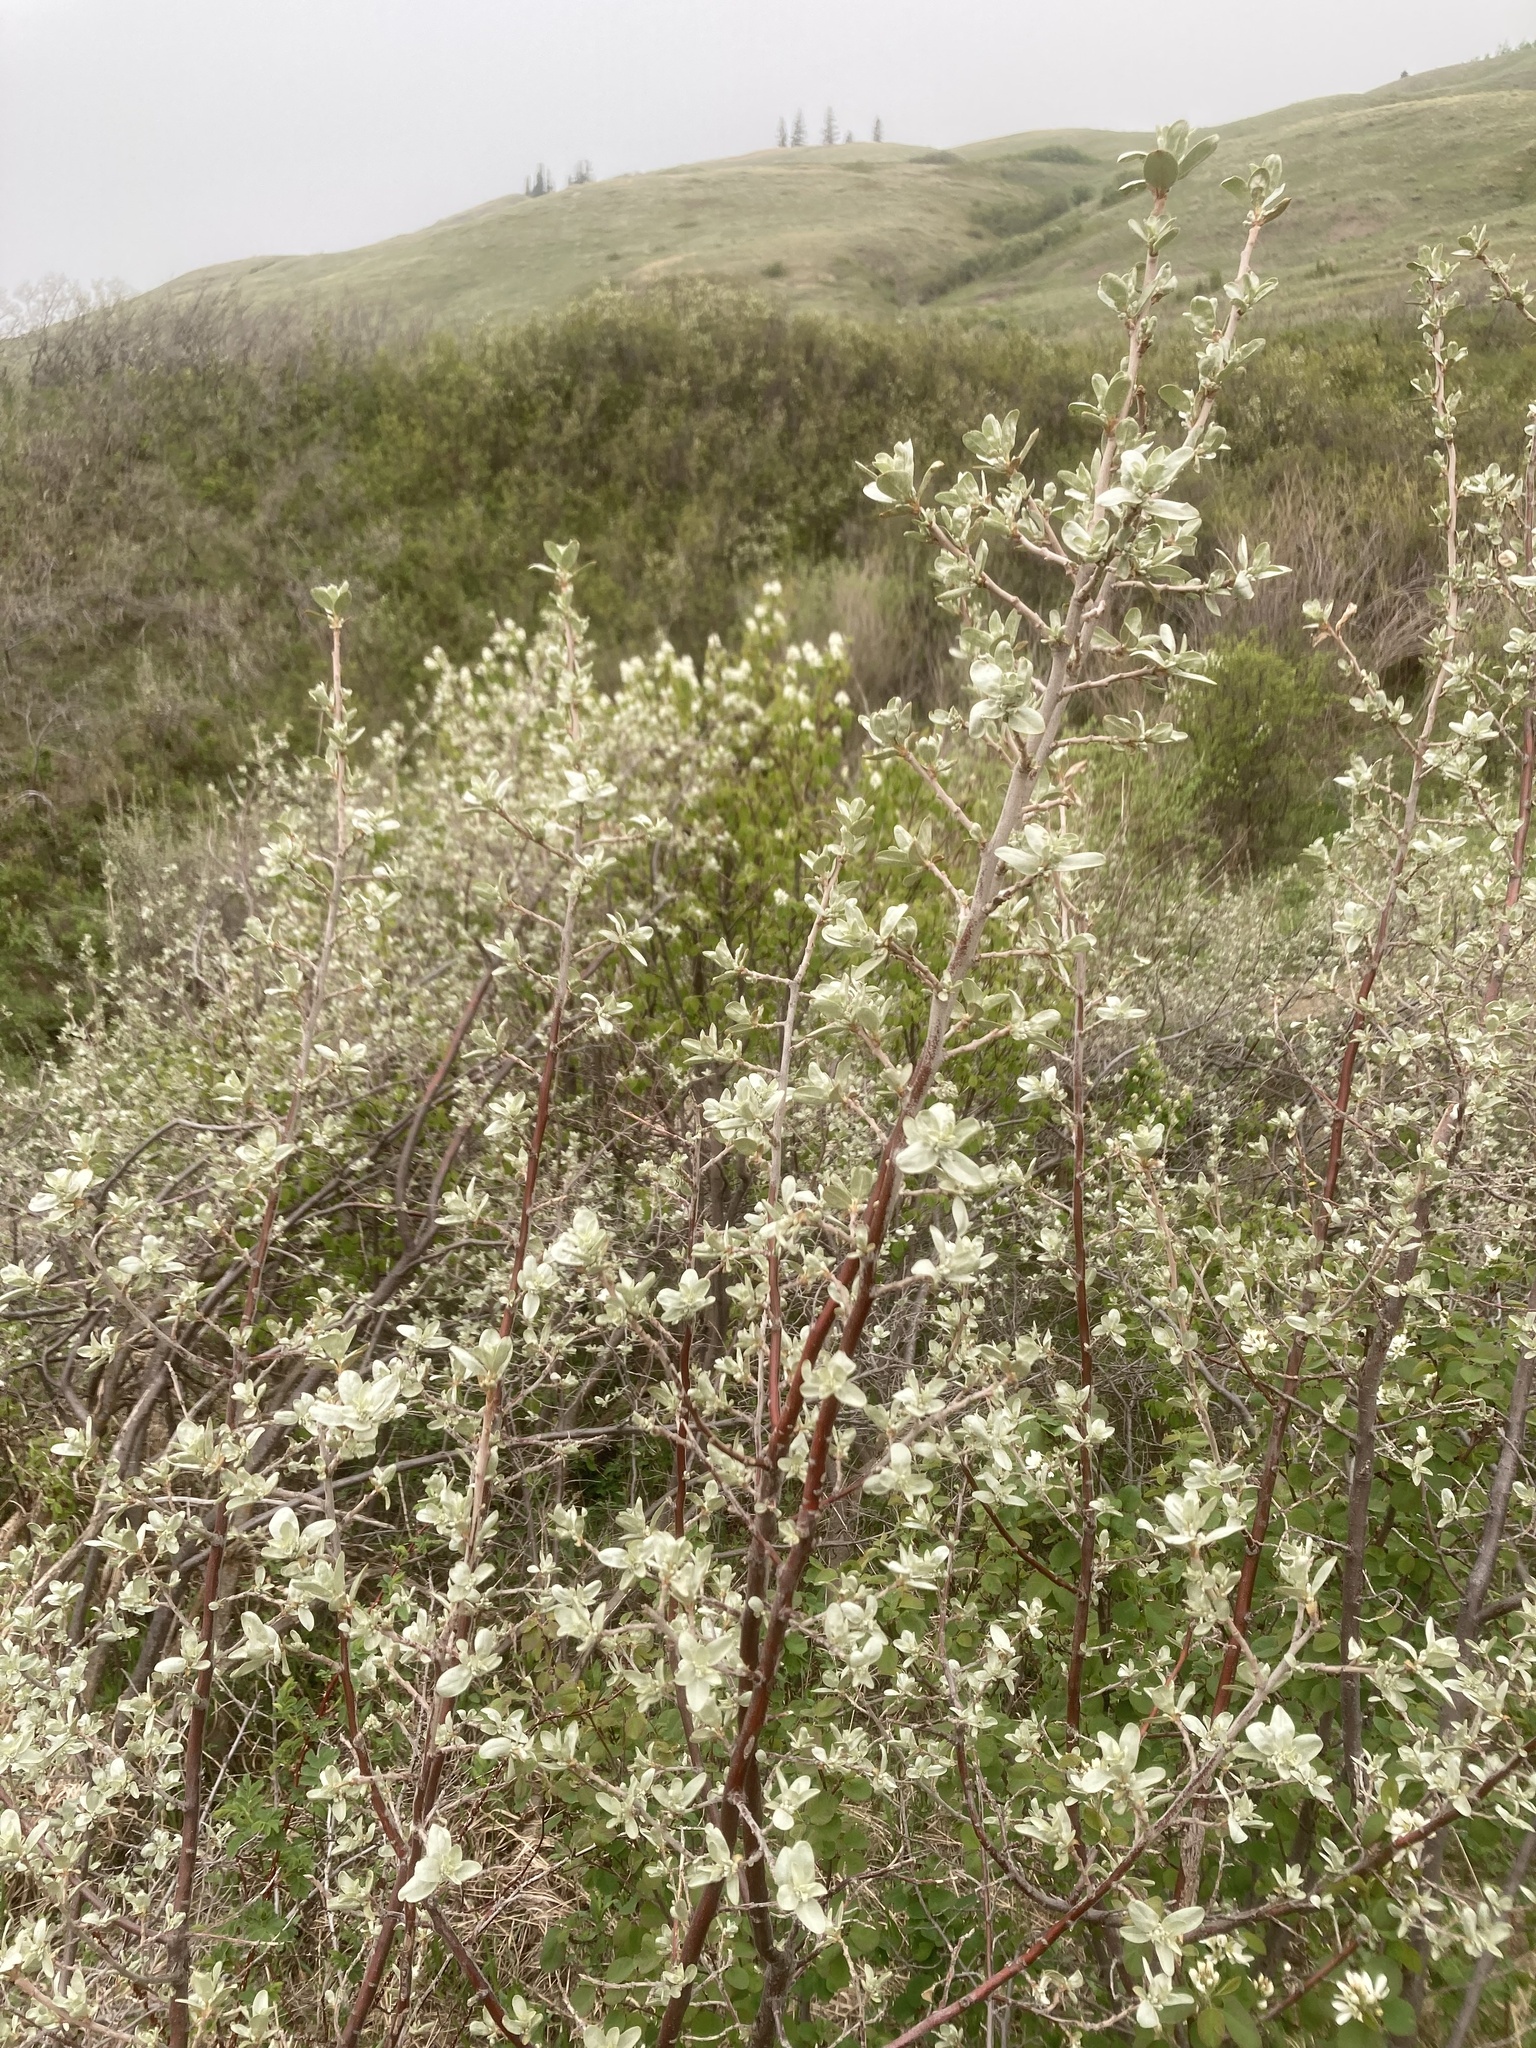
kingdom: Plantae
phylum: Tracheophyta
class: Magnoliopsida
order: Rosales
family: Elaeagnaceae
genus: Elaeagnus
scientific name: Elaeagnus commutata
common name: Silverberry
